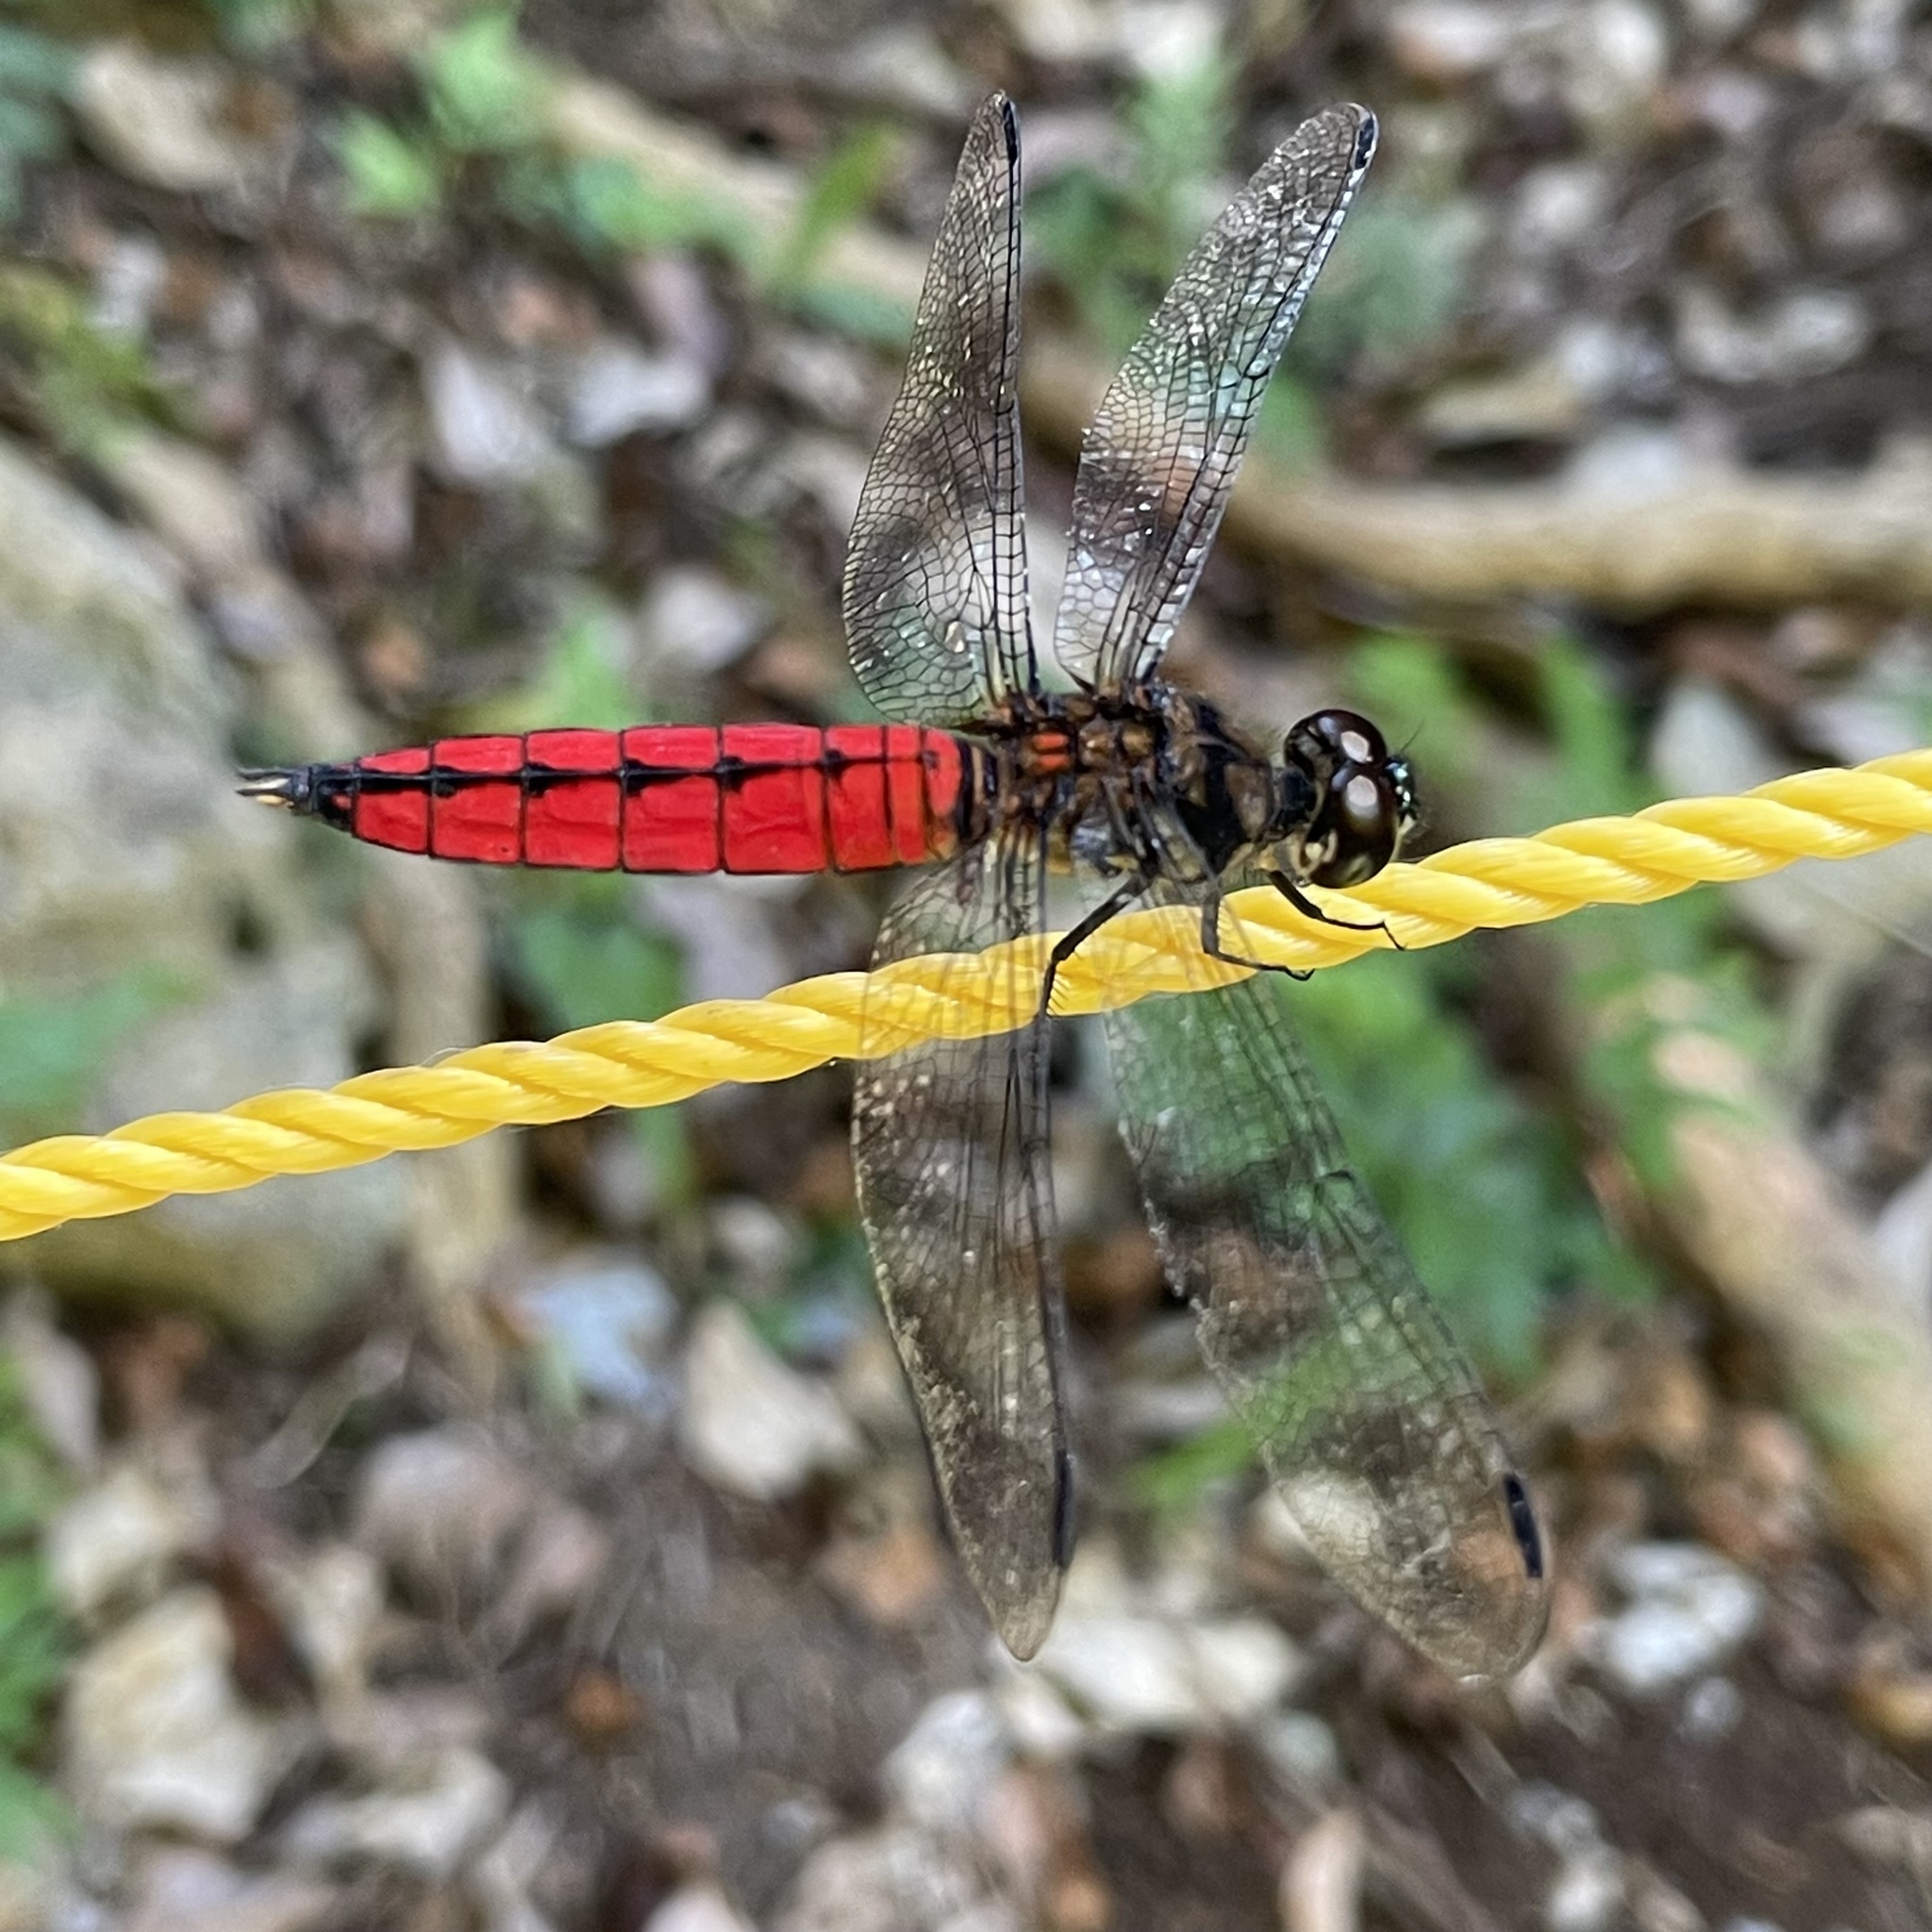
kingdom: Animalia
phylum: Arthropoda
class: Insecta
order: Odonata
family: Libellulidae
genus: Lyriothemis
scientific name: Lyriothemis elegantissima
